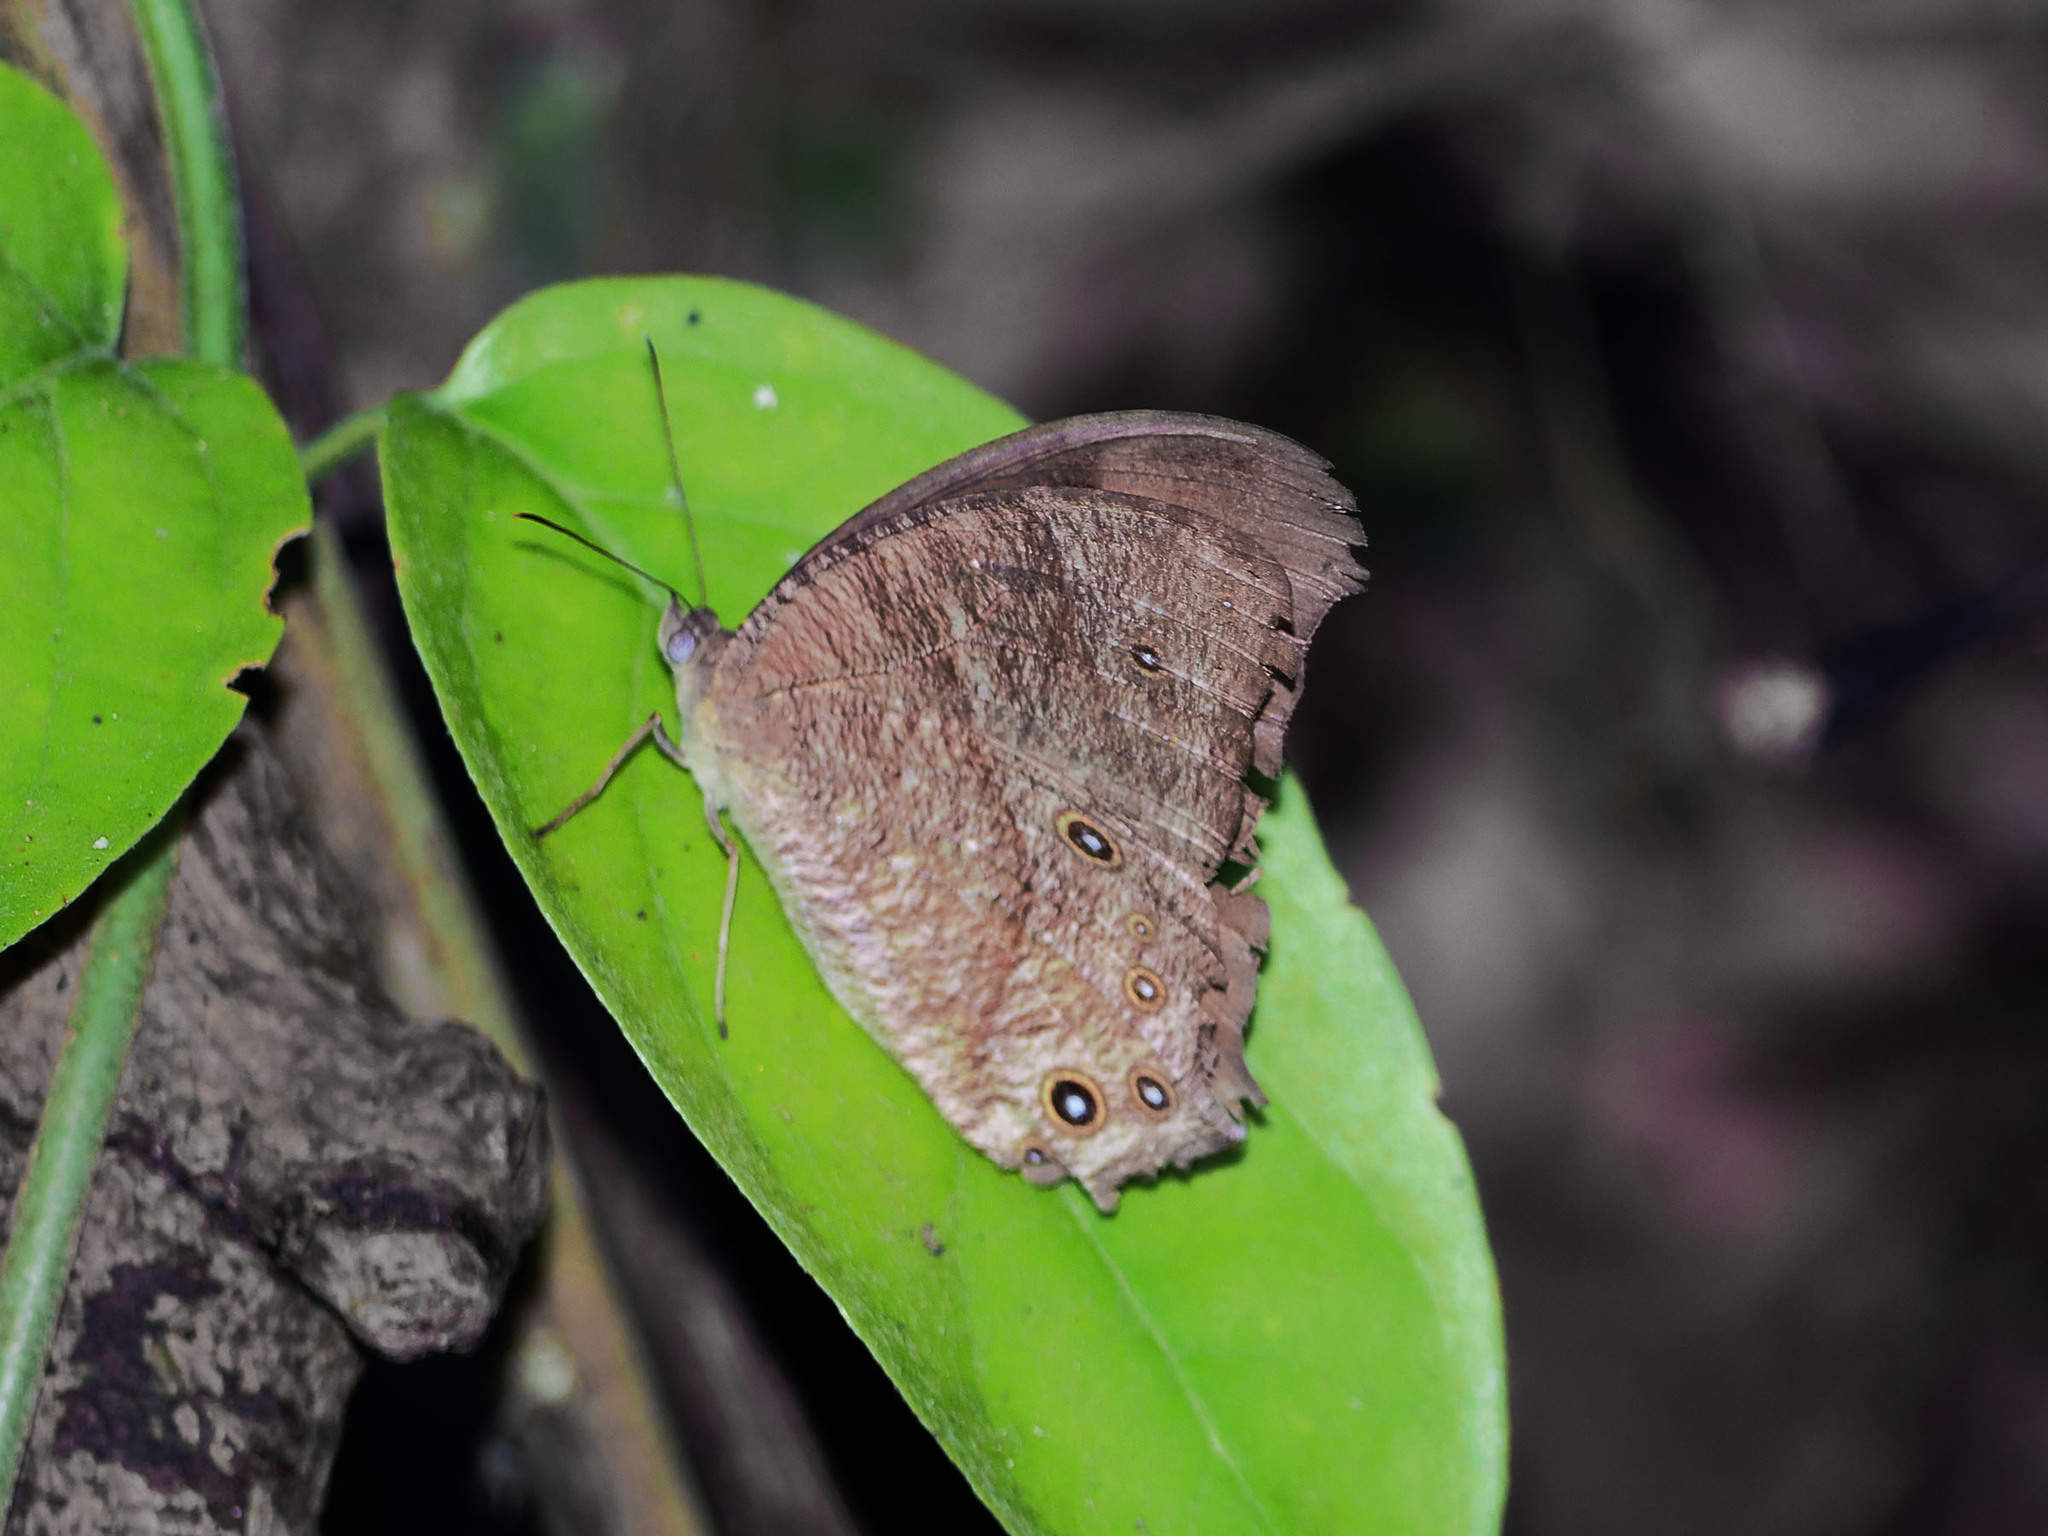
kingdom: Animalia
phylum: Arthropoda
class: Insecta
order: Lepidoptera
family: Nymphalidae
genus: Melanitis
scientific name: Melanitis leda
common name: Twilight brown
